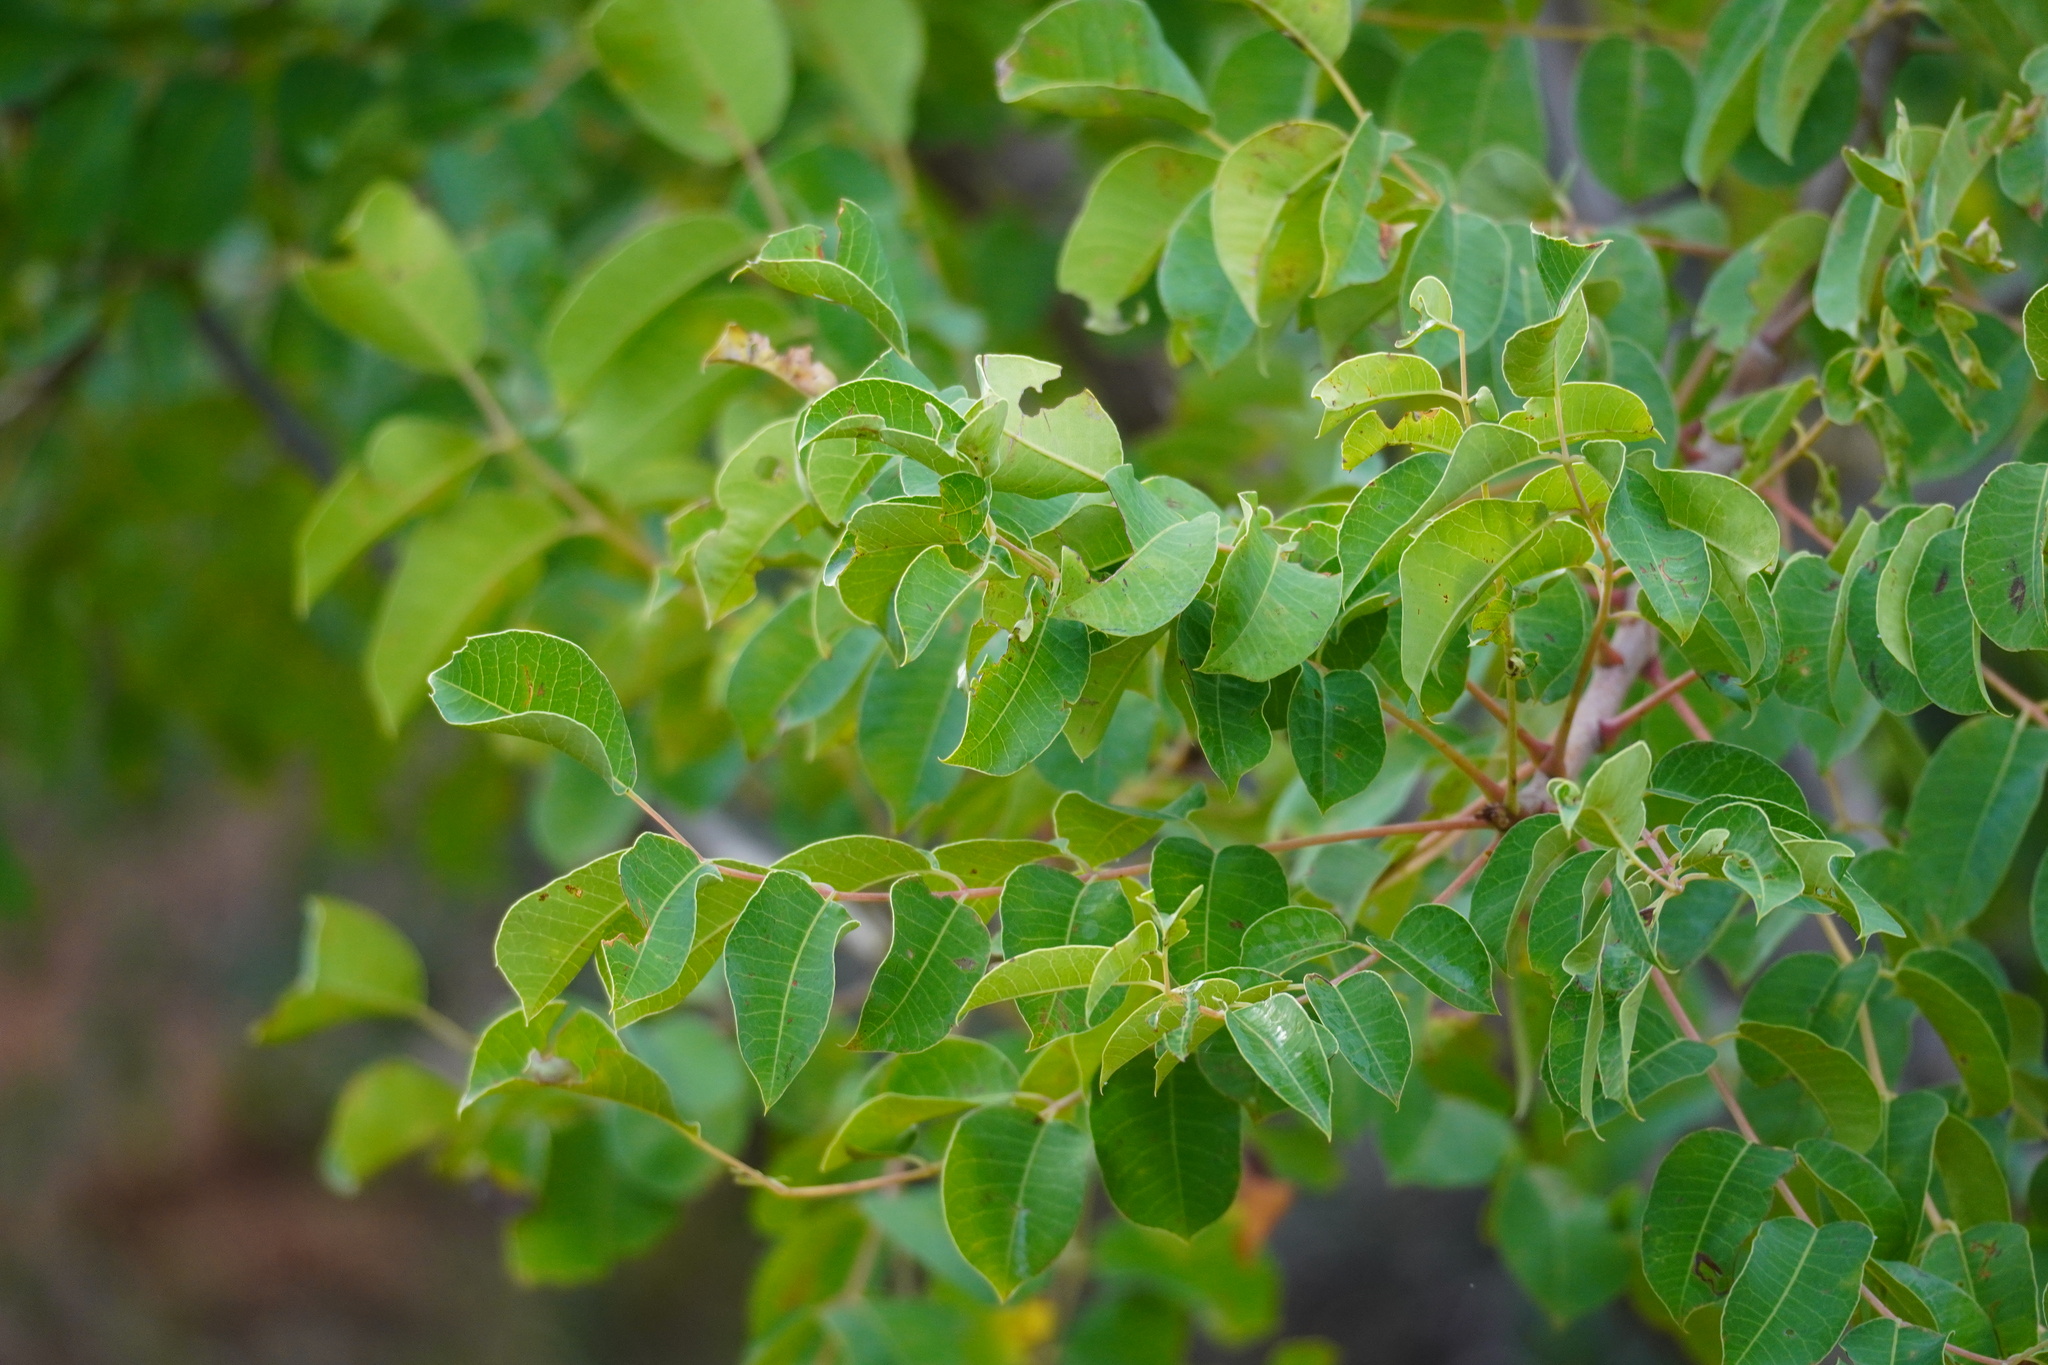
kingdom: Plantae
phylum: Tracheophyta
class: Magnoliopsida
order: Sapindales
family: Anacardiaceae
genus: Sclerocarya
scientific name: Sclerocarya birrea
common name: Marula
